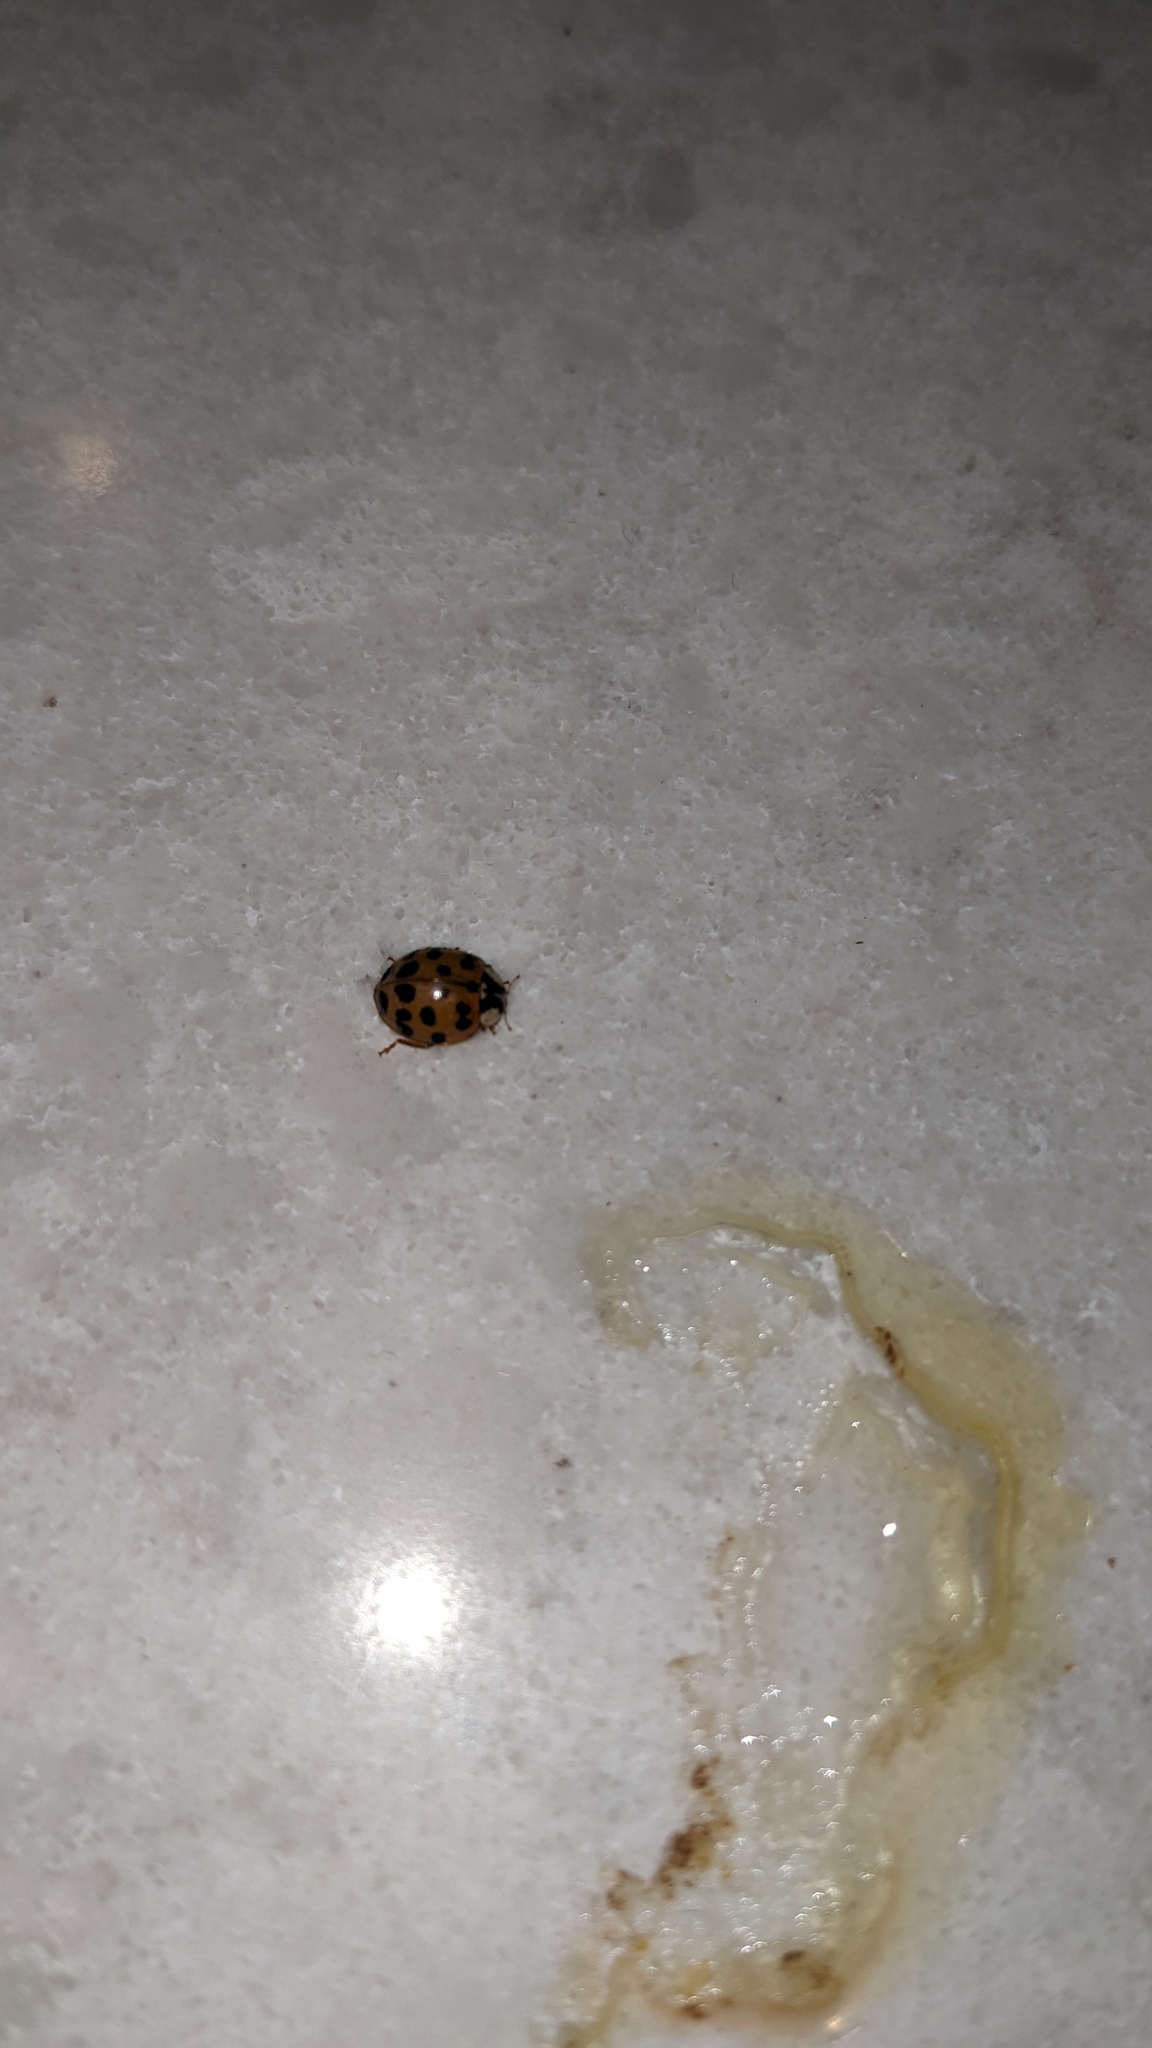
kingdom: Animalia
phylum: Arthropoda
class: Insecta
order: Coleoptera
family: Coccinellidae
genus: Harmonia
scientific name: Harmonia axyridis
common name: Harlequin ladybird
